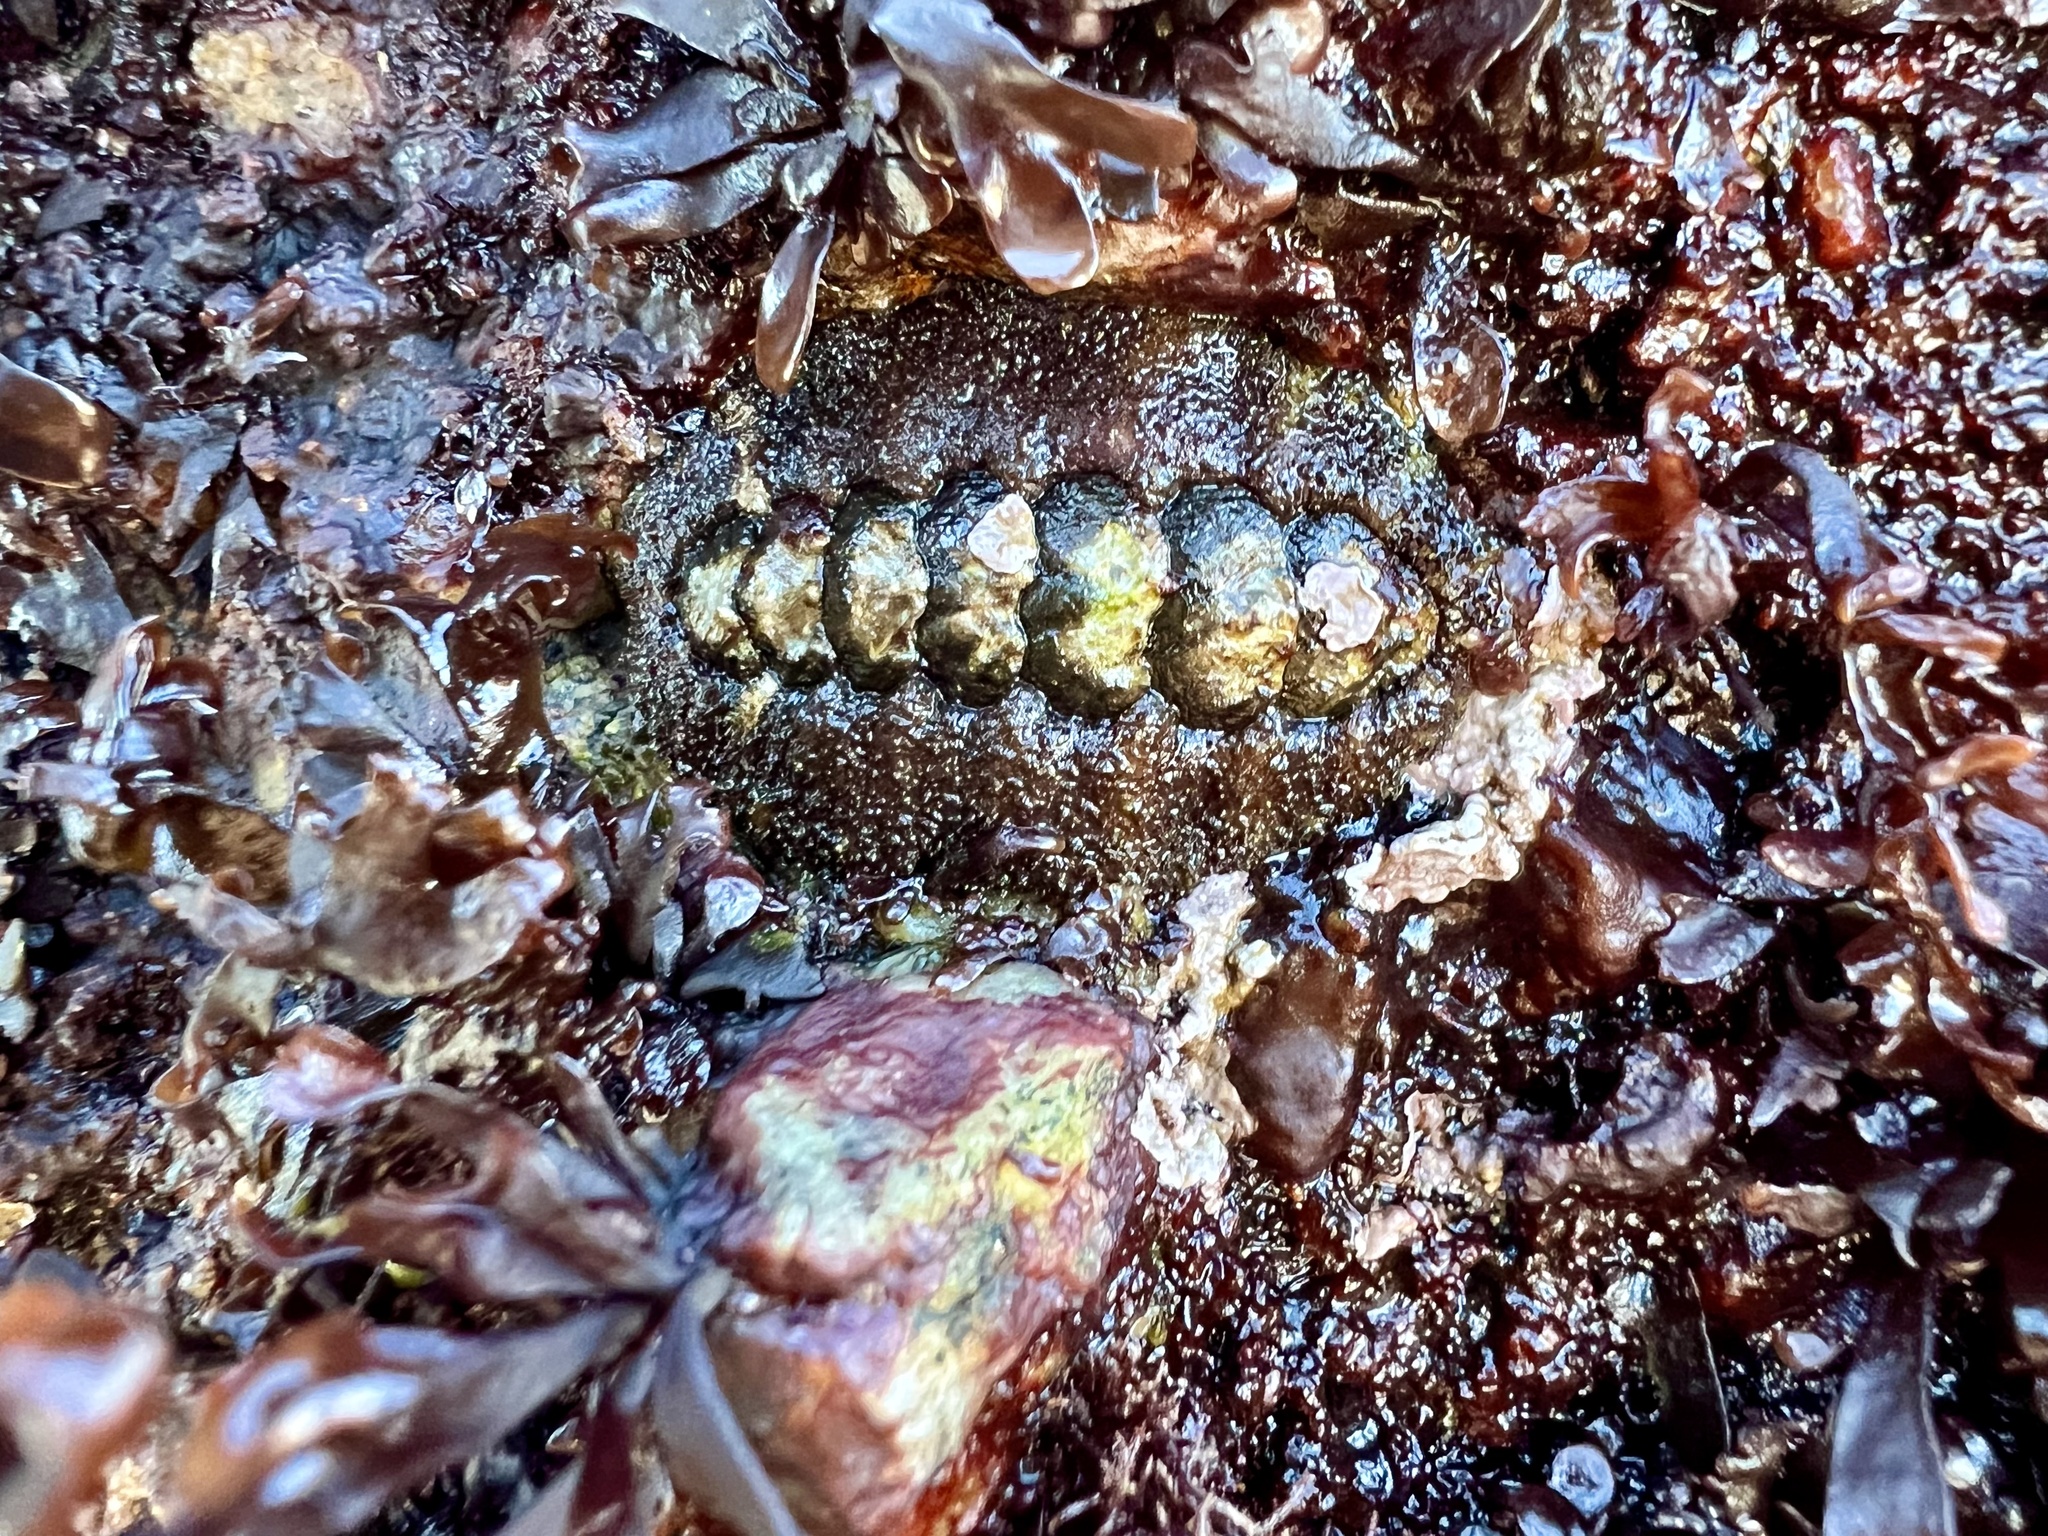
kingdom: Animalia
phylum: Mollusca
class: Polyplacophora
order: Chitonida
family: Tonicellidae
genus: Nuttallina
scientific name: Nuttallina californica
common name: California nuttall chiton
